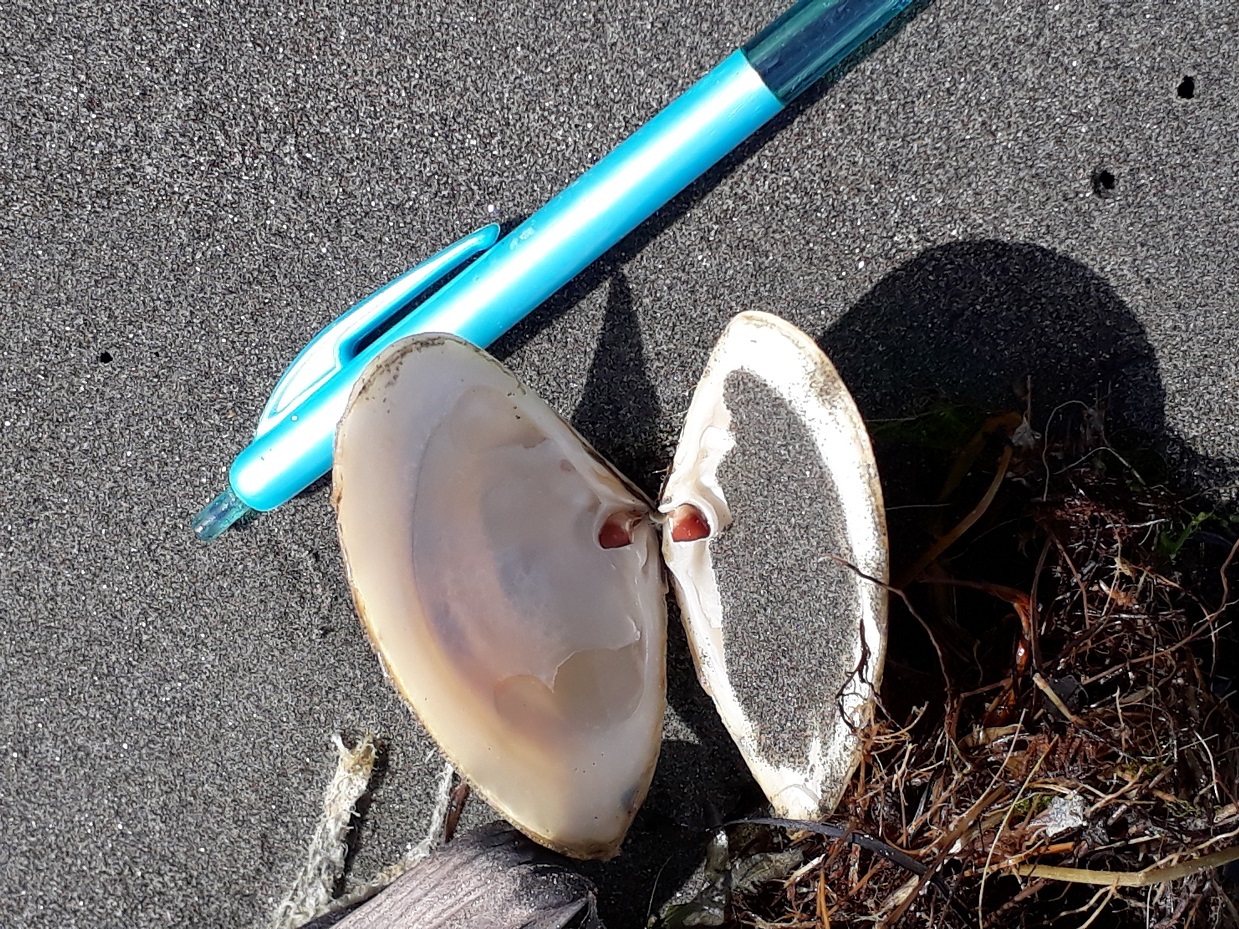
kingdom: Animalia
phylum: Mollusca
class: Bivalvia
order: Venerida
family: Mesodesmatidae
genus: Paphies
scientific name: Paphies donacina
